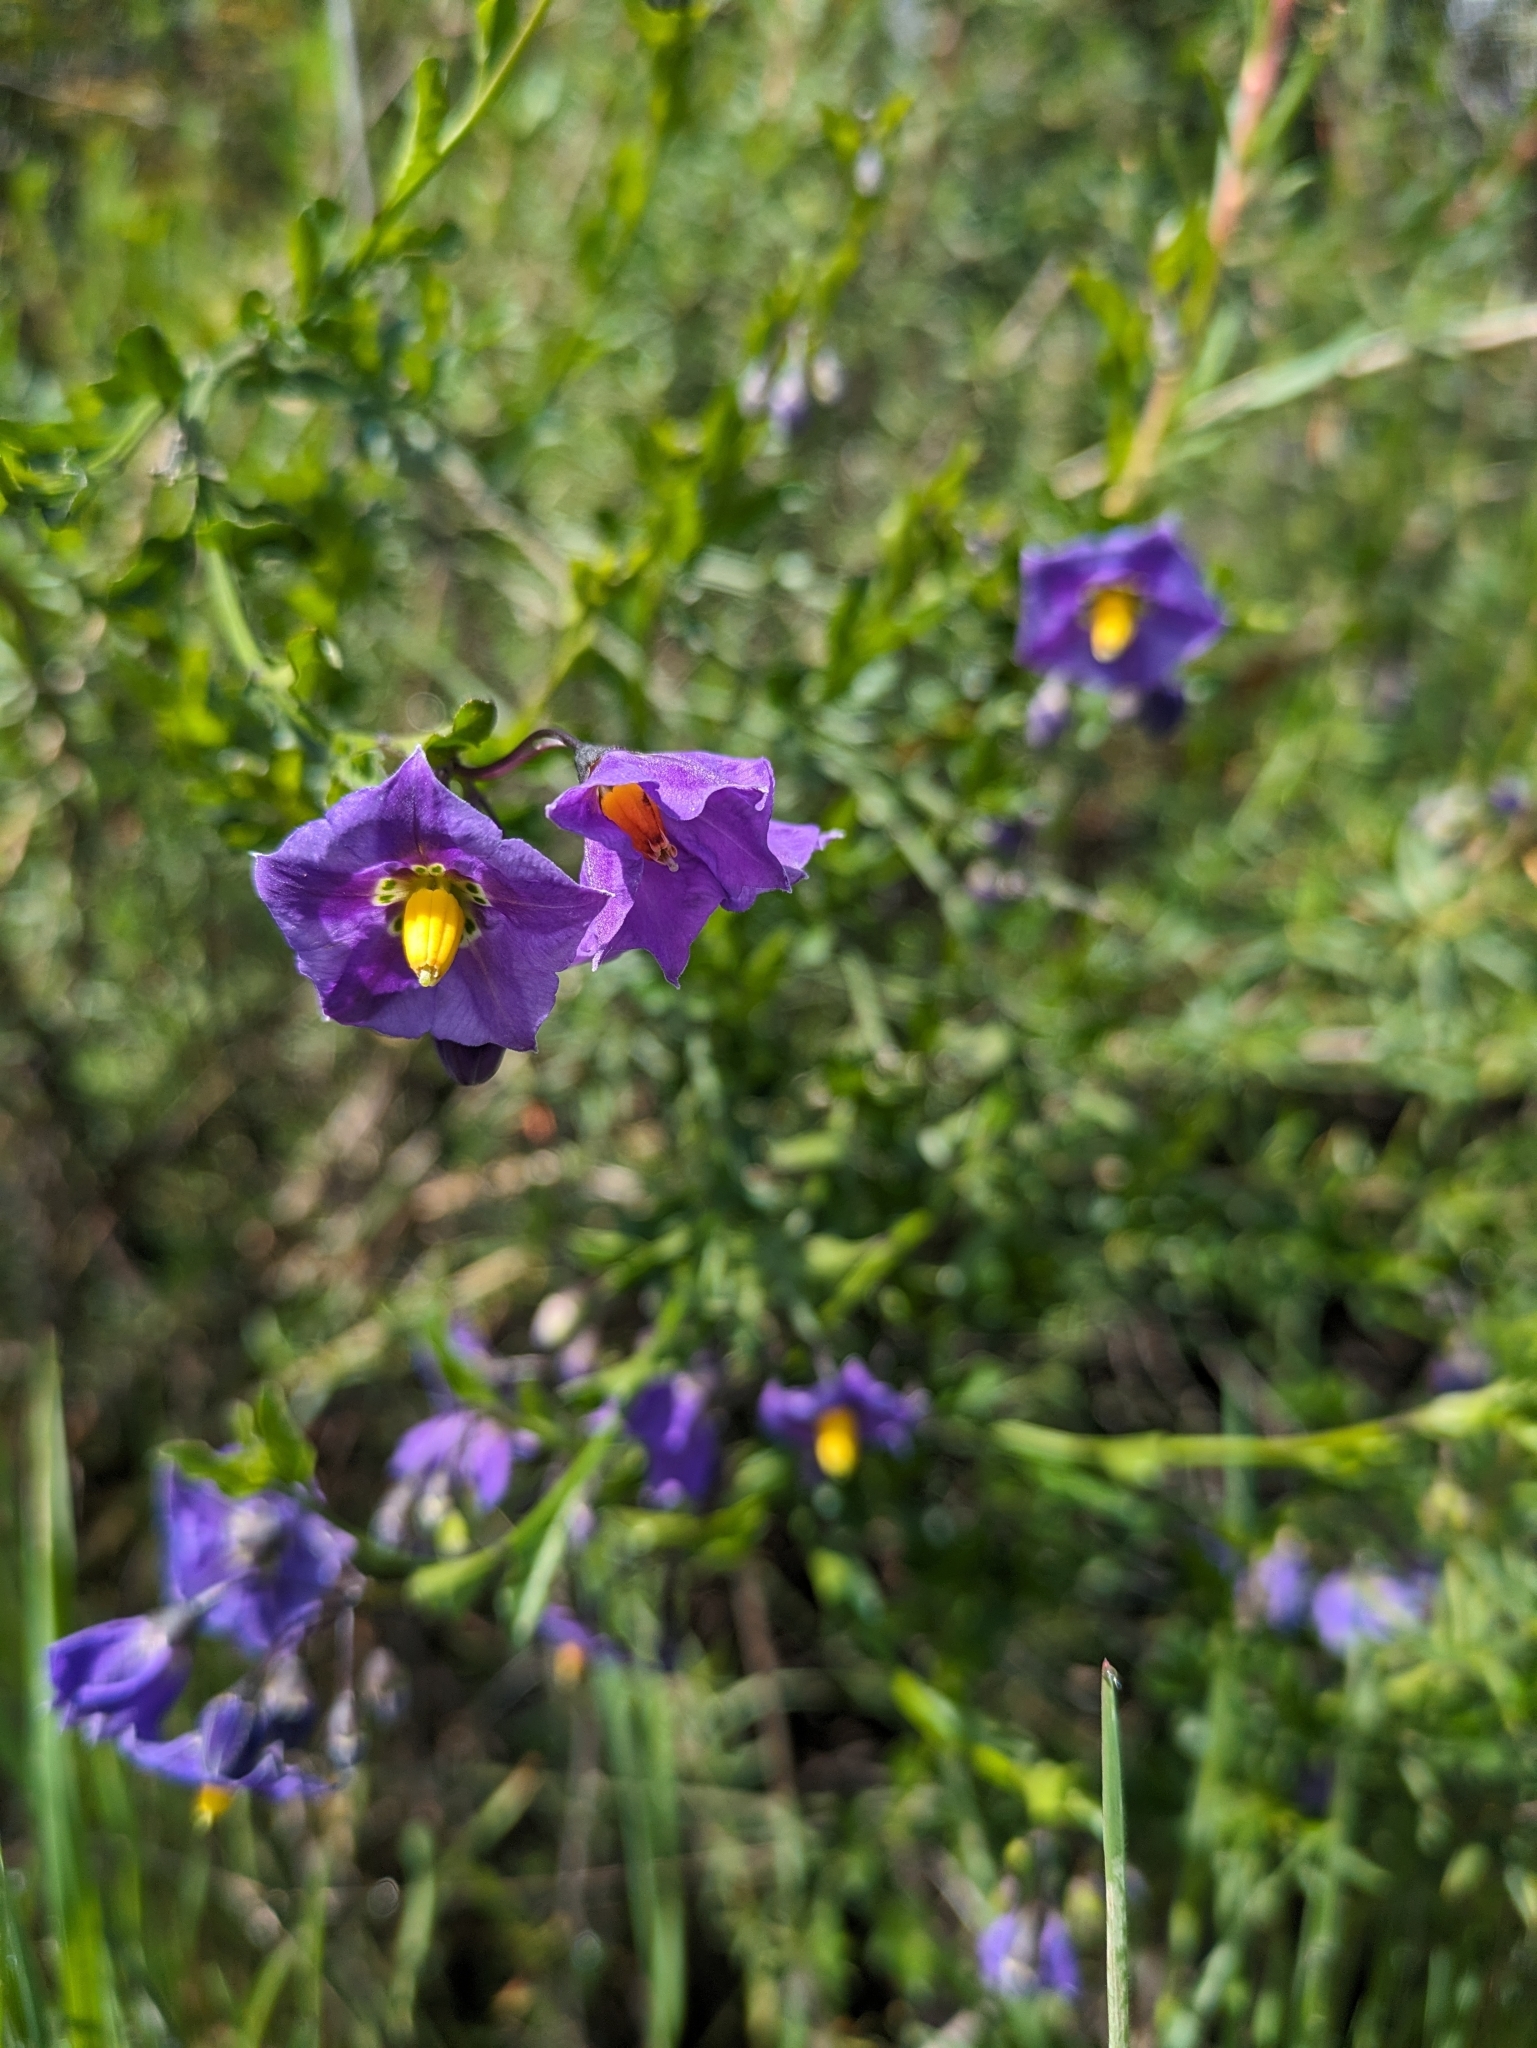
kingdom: Plantae
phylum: Tracheophyta
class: Magnoliopsida
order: Solanales
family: Solanaceae
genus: Solanum
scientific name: Solanum umbelliferum
